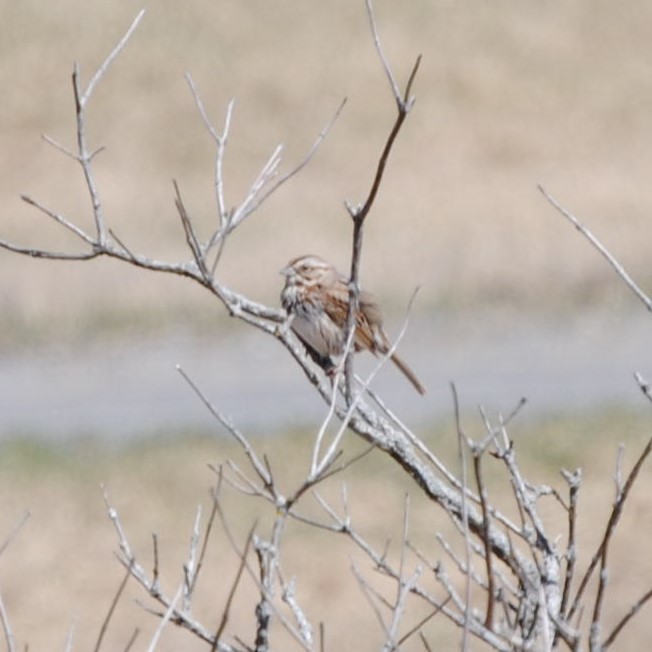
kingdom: Animalia
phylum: Chordata
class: Aves
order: Passeriformes
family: Passerellidae
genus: Melospiza
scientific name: Melospiza melodia
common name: Song sparrow
